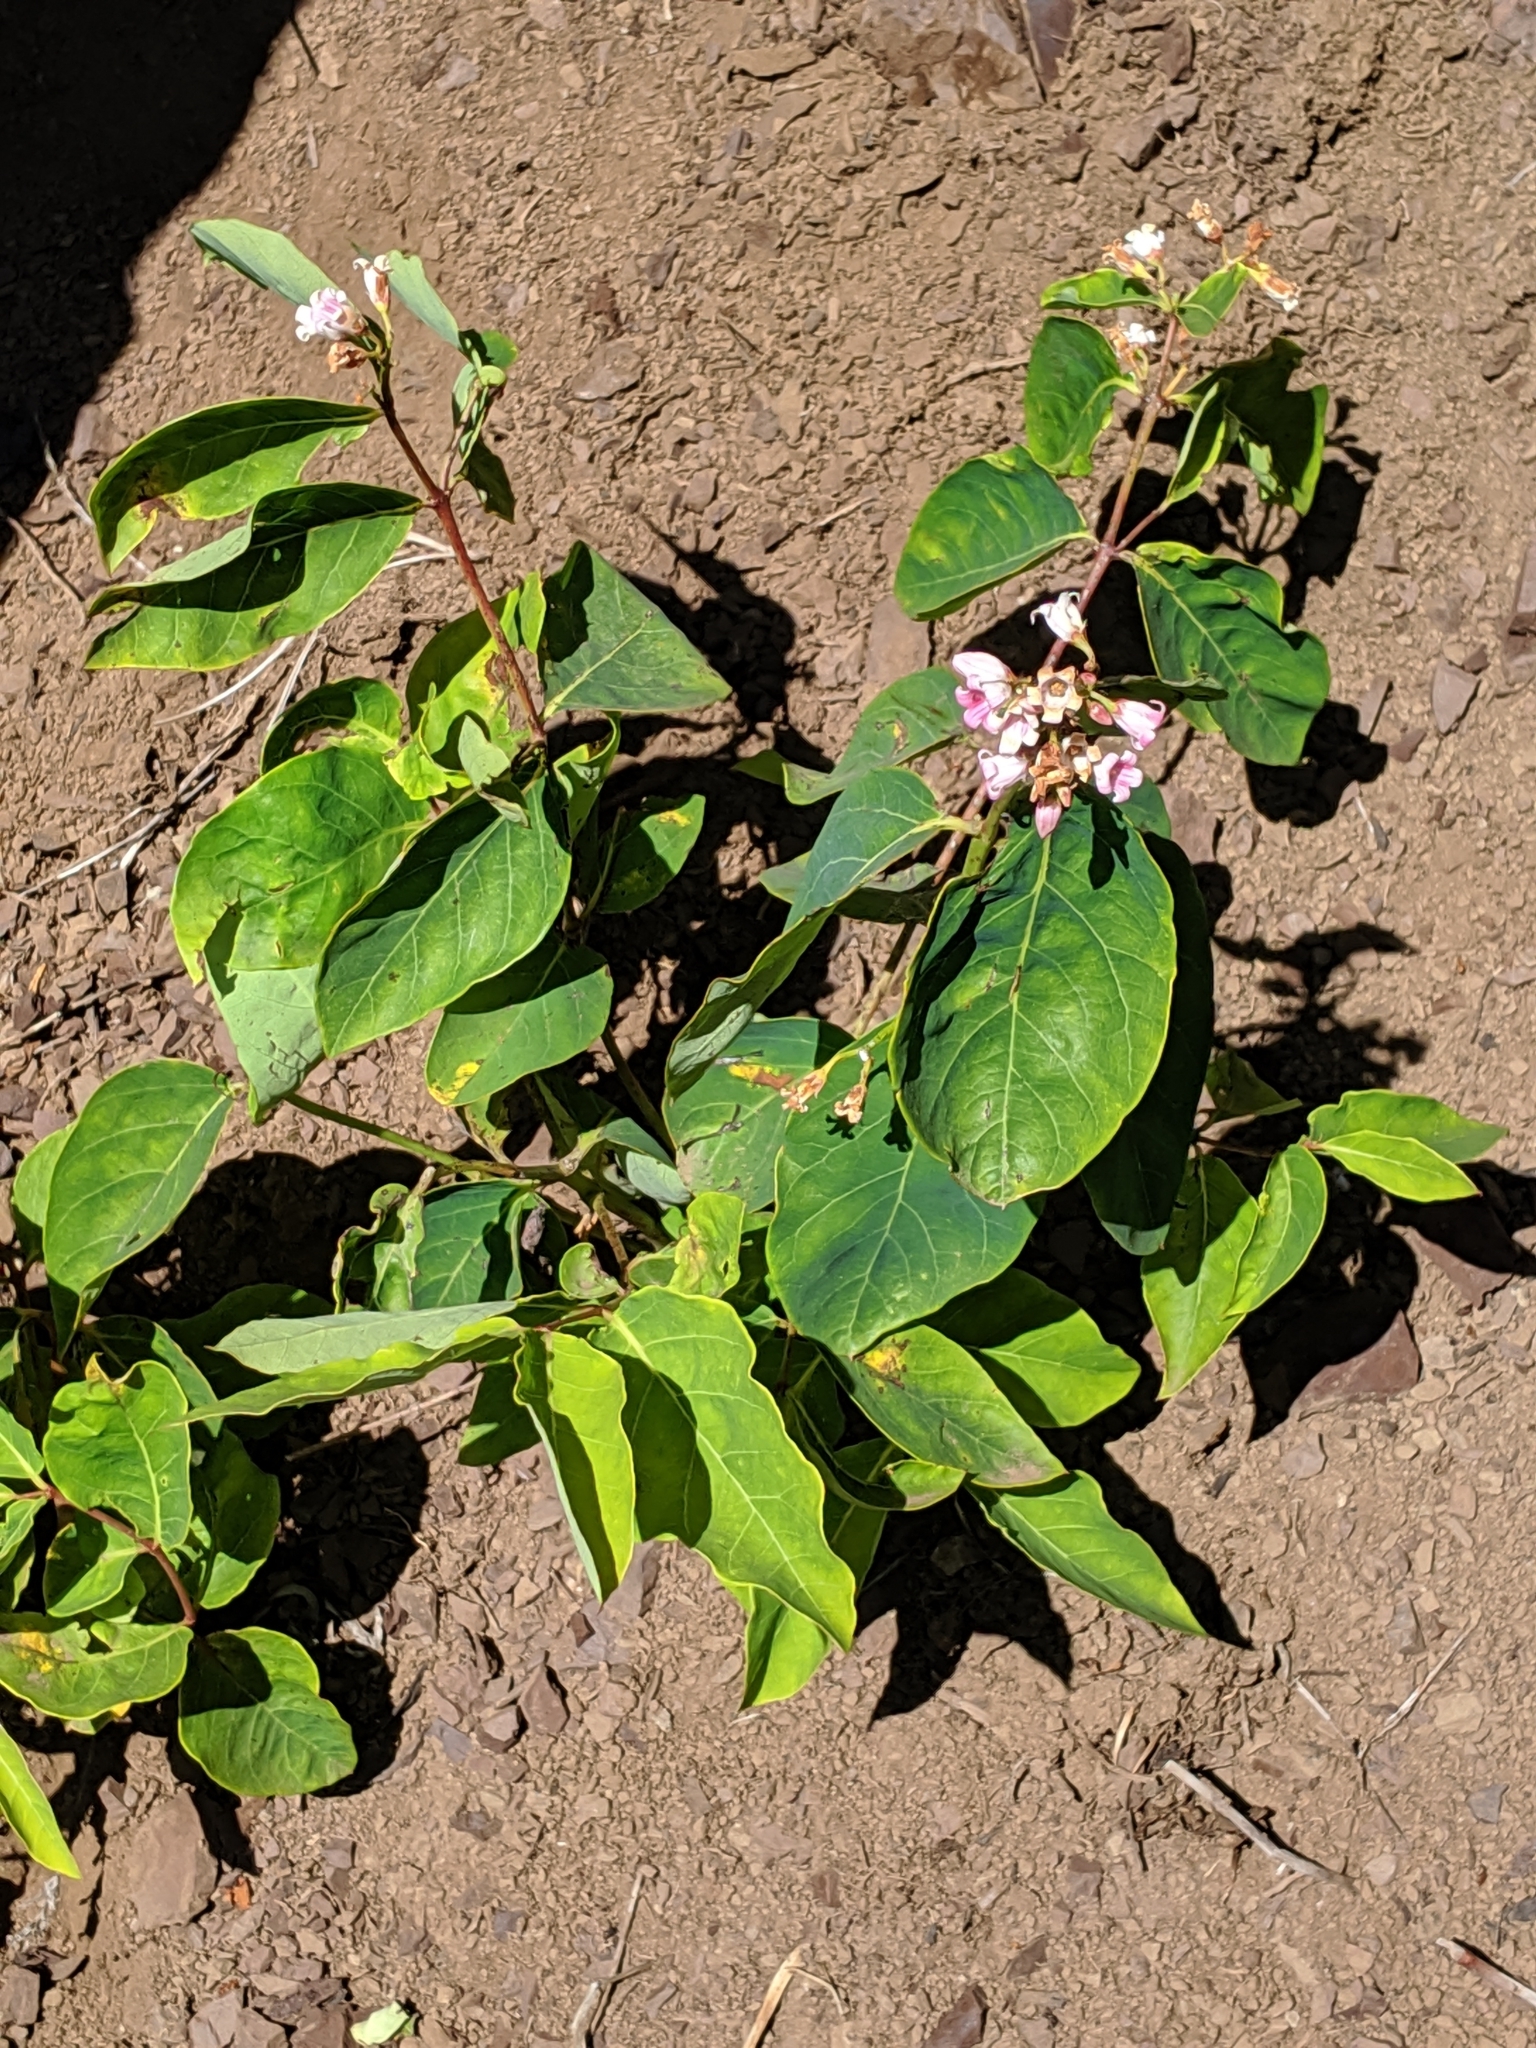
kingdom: Plantae
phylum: Tracheophyta
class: Magnoliopsida
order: Gentianales
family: Apocynaceae
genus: Apocynum
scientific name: Apocynum androsaemifolium
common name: Spreading dogbane
